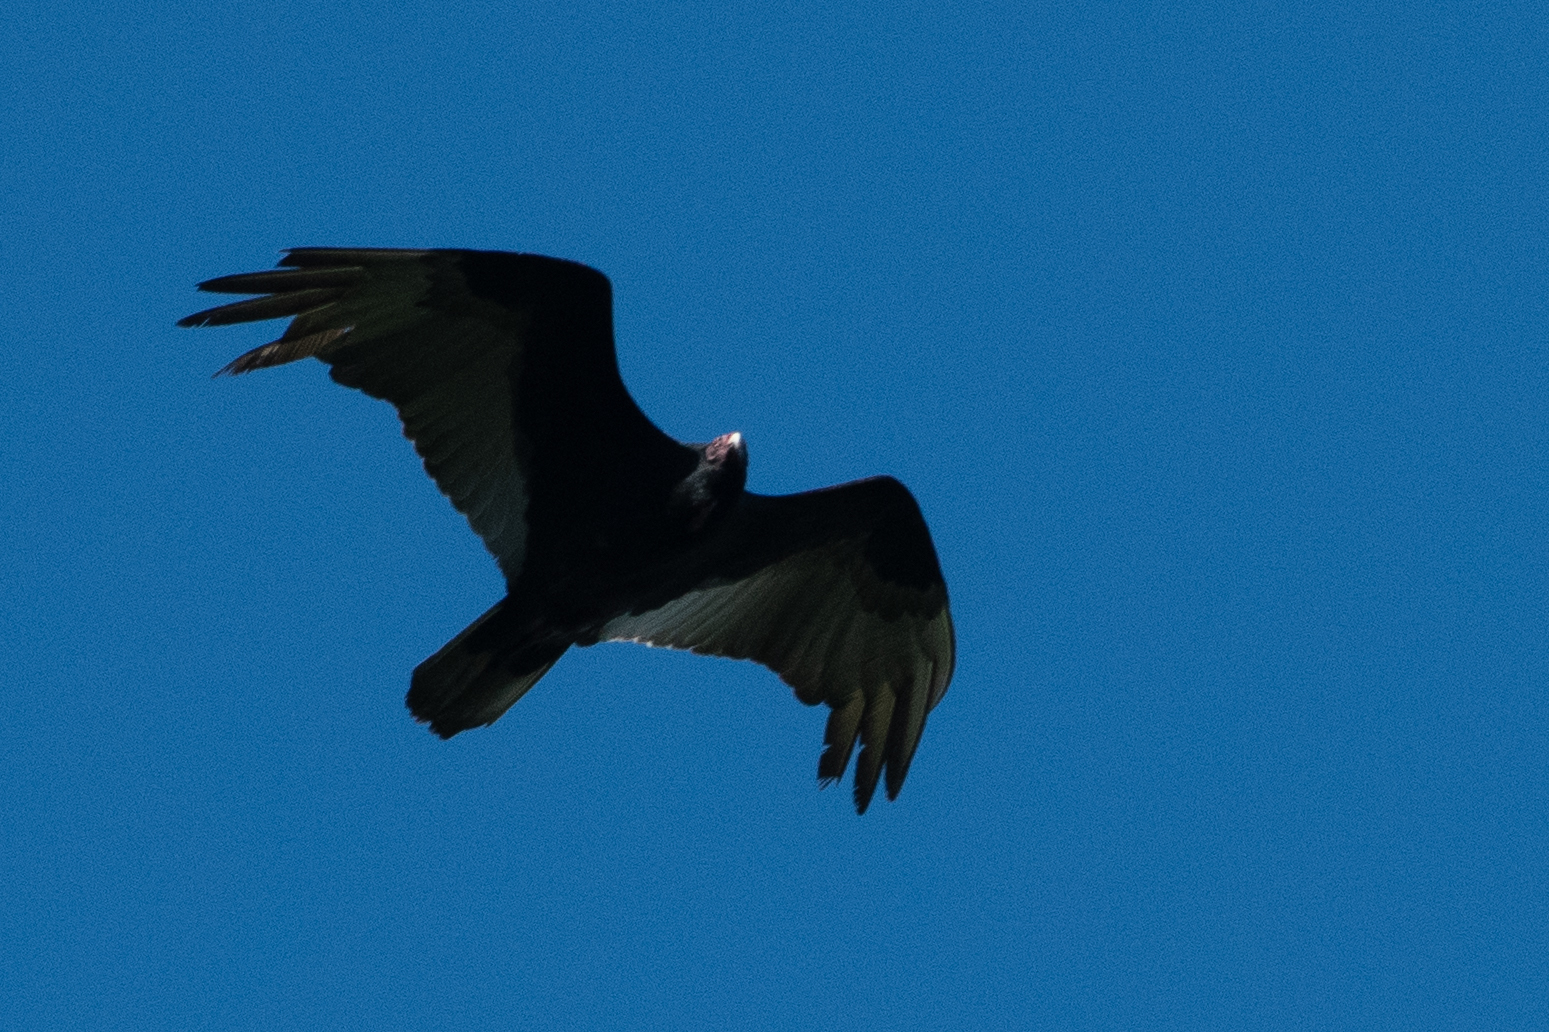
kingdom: Animalia
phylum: Chordata
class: Aves
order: Accipitriformes
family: Cathartidae
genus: Cathartes
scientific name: Cathartes aura
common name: Turkey vulture
